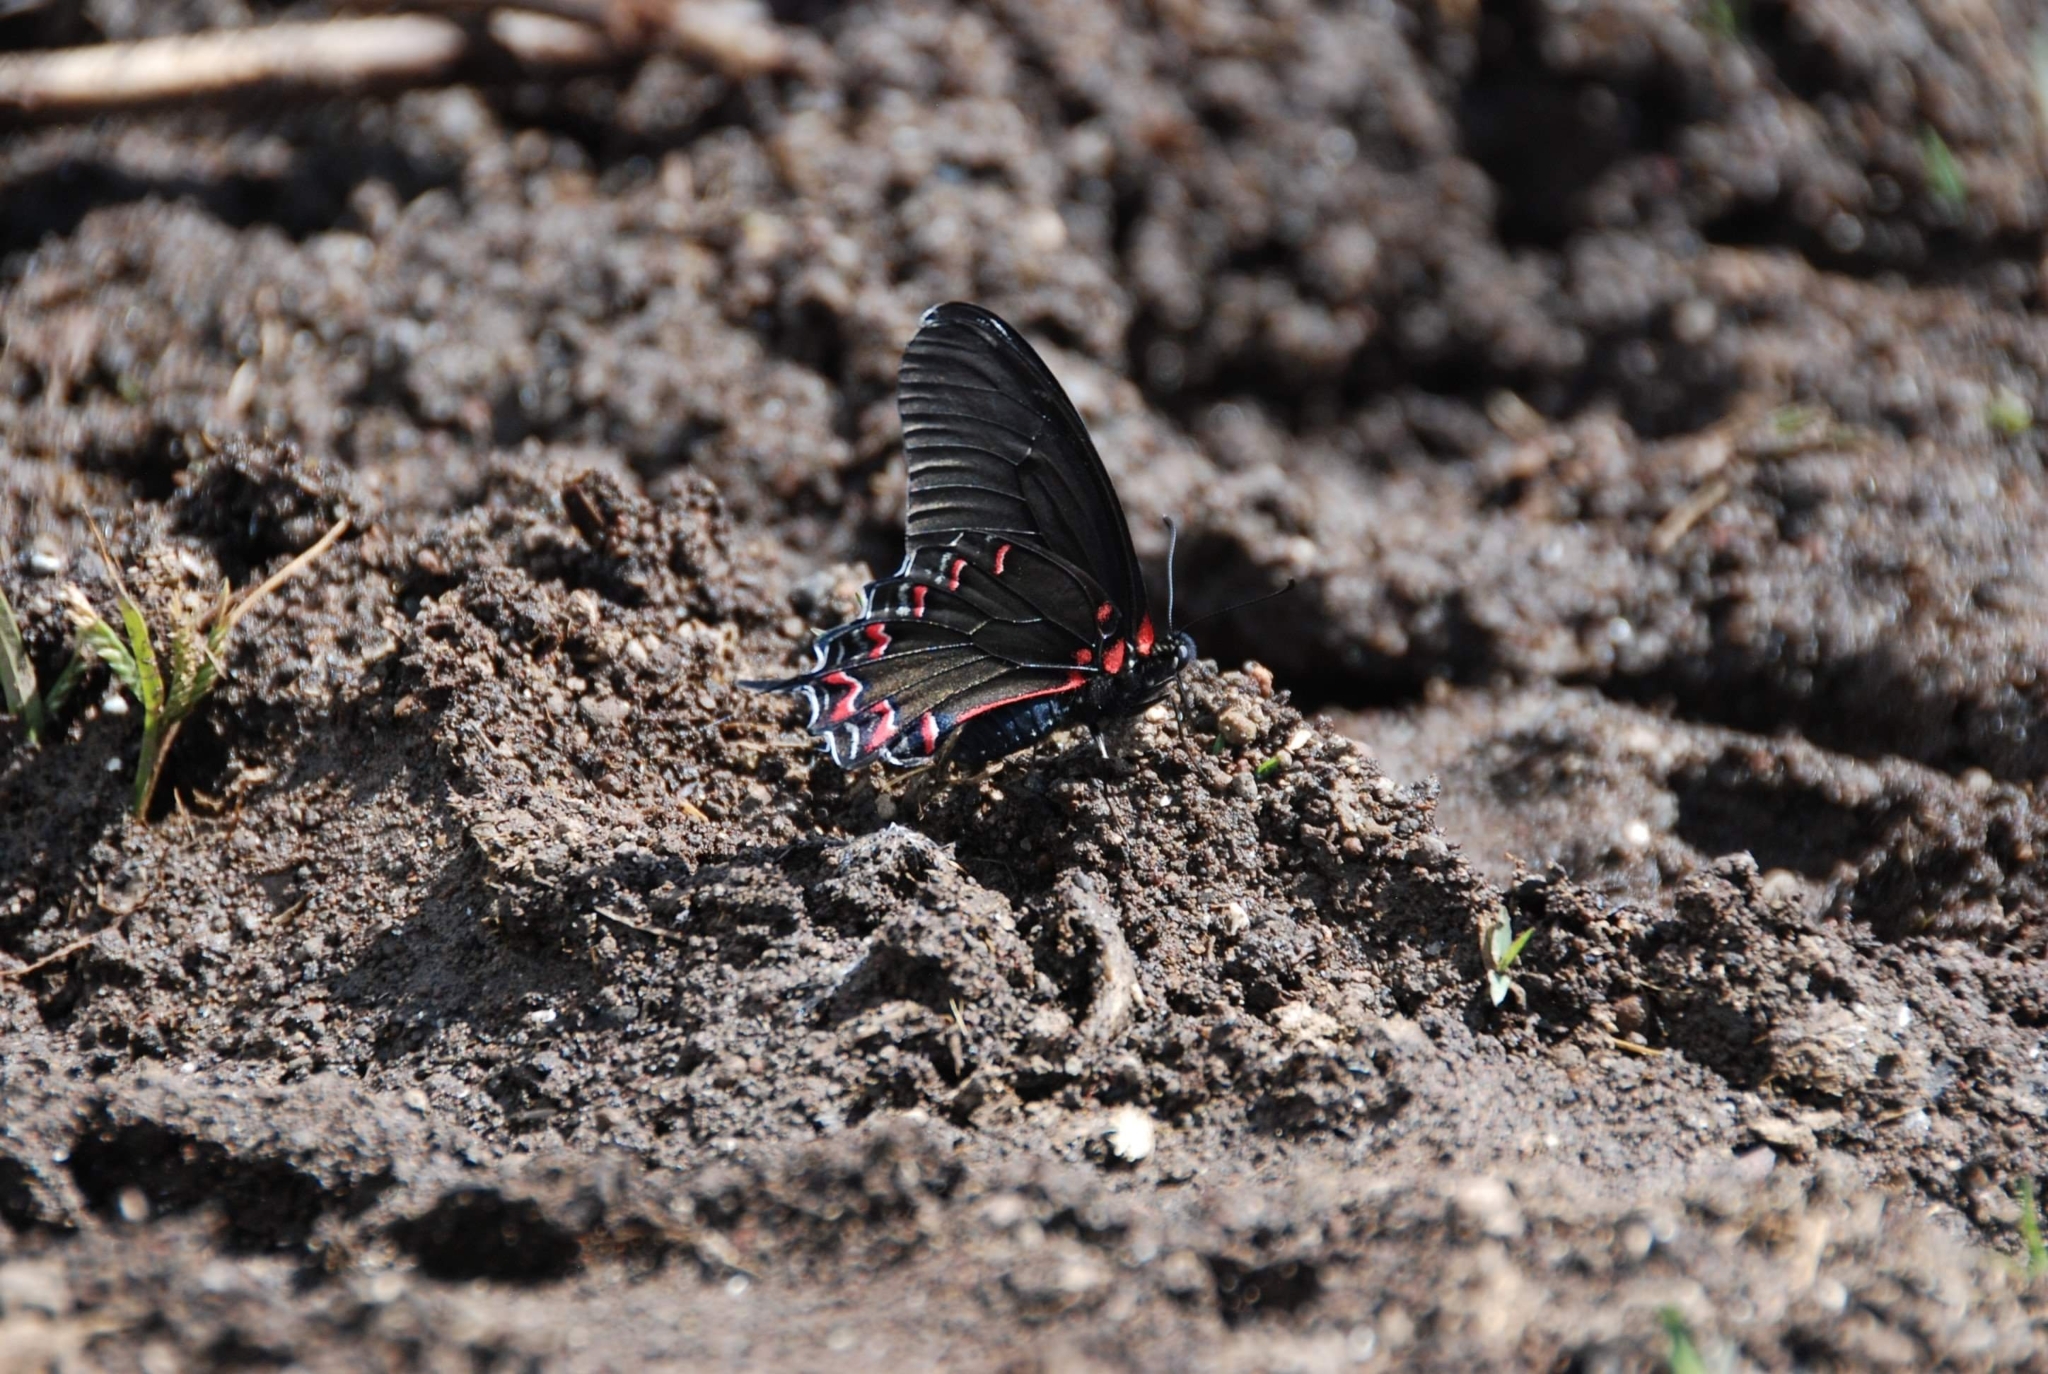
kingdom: Animalia
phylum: Arthropoda
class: Insecta
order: Lepidoptera
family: Papilionidae
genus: Mimoides
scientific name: Mimoides thymbraeus
